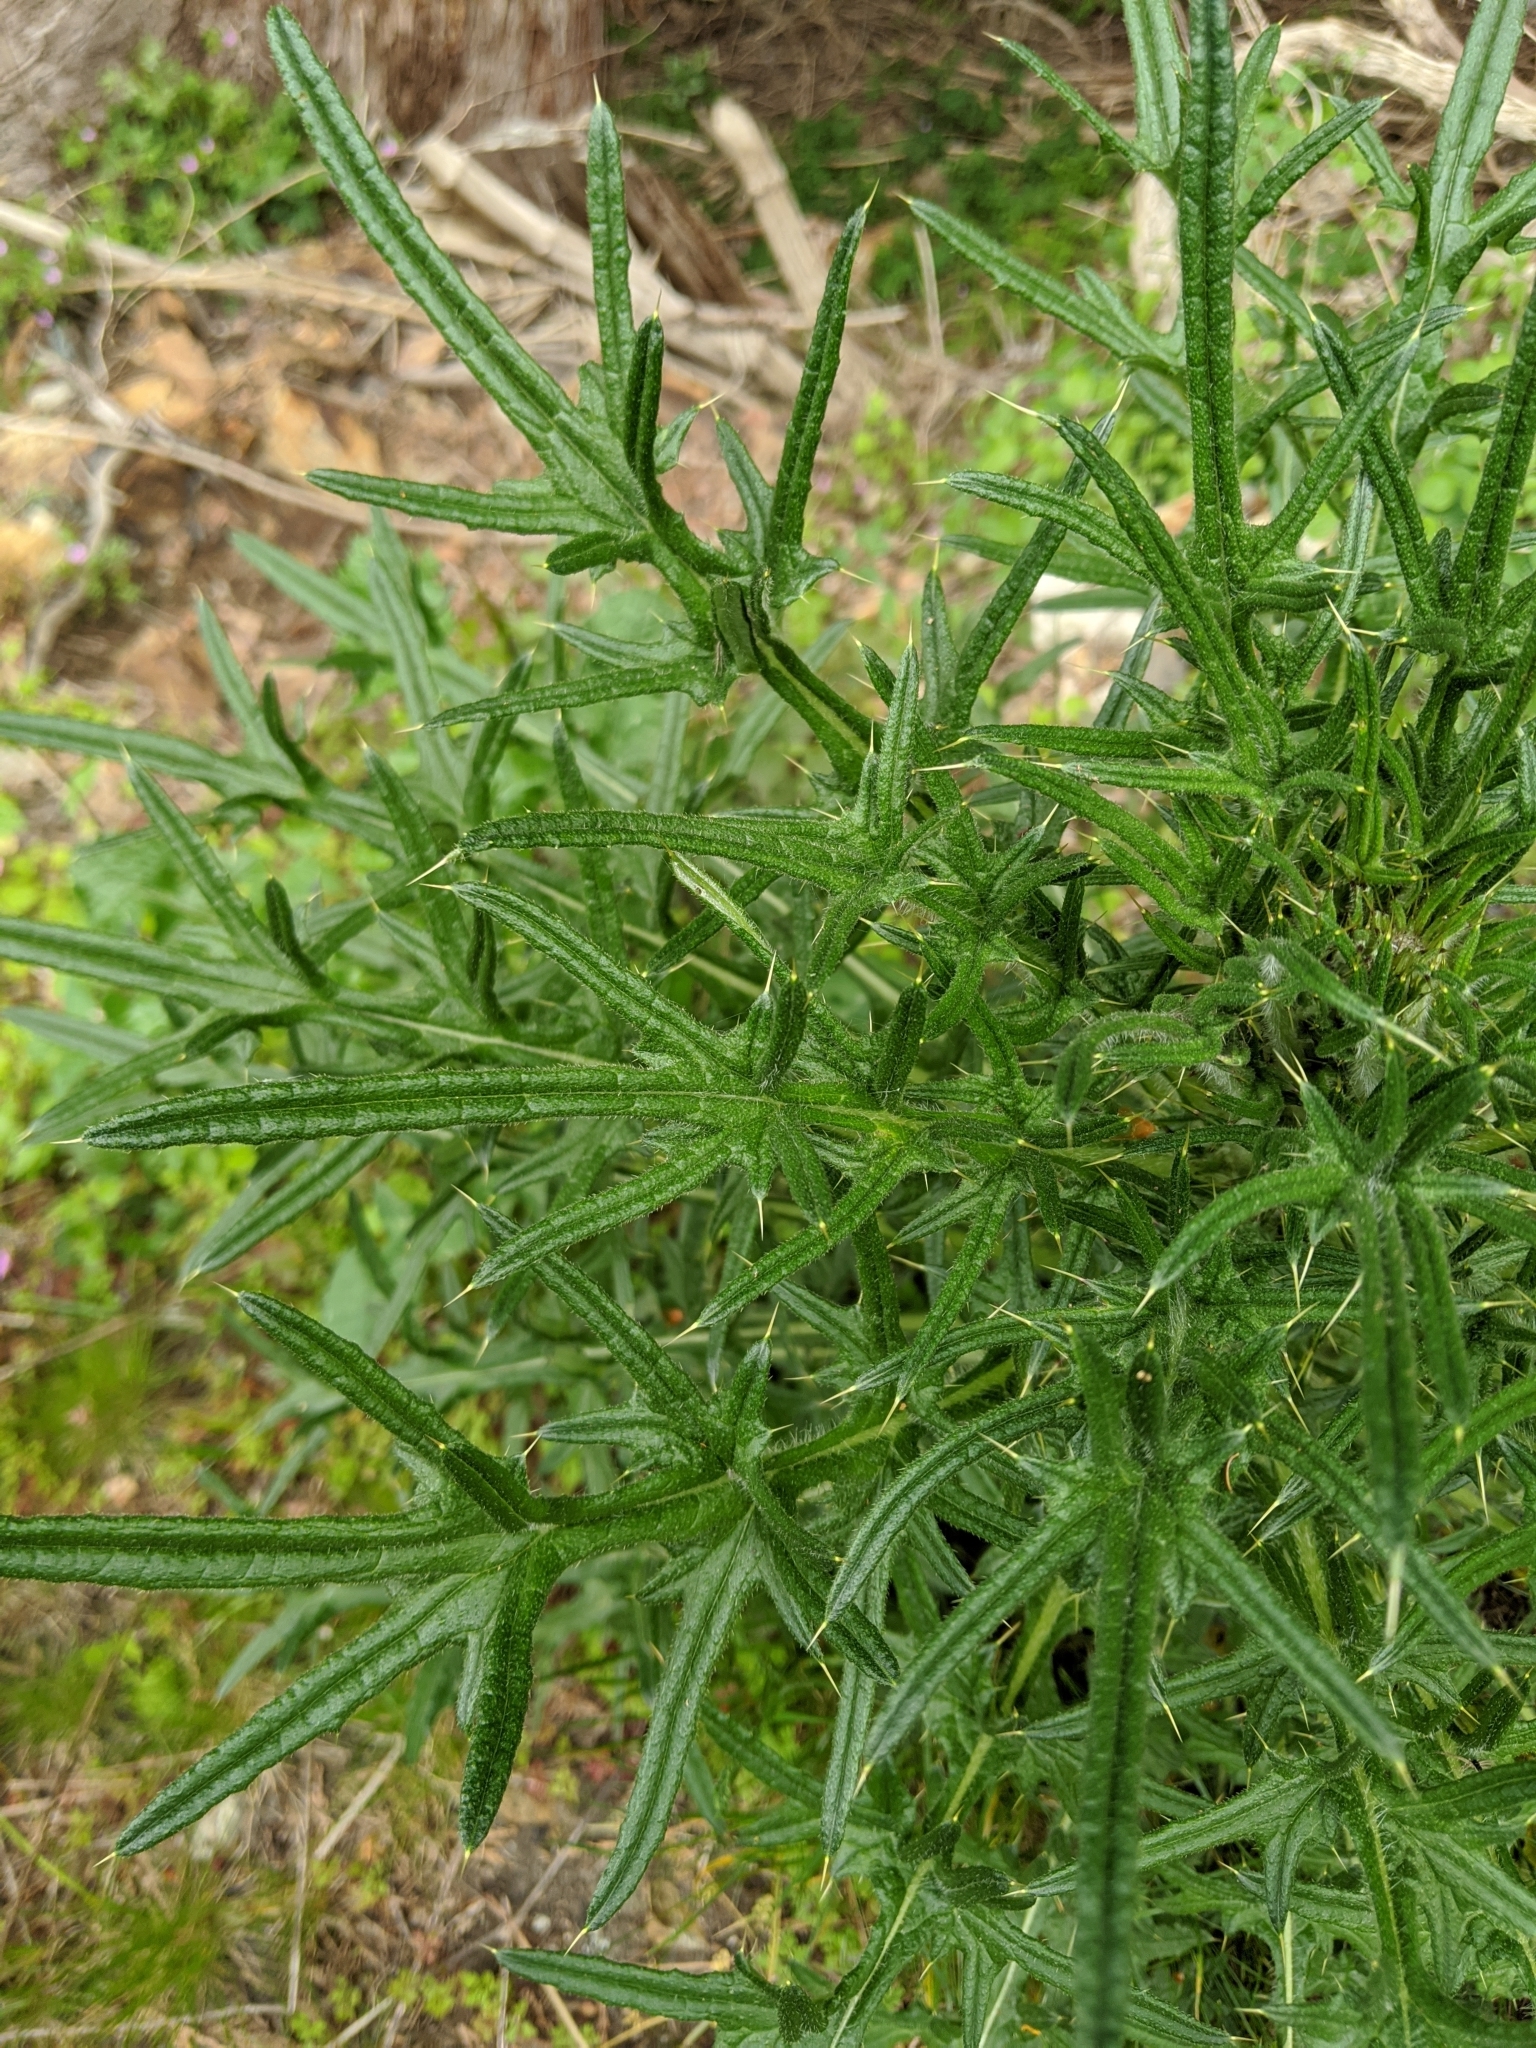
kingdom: Plantae
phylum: Tracheophyta
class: Magnoliopsida
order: Asterales
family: Asteraceae
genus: Cirsium
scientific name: Cirsium vulgare
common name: Bull thistle
